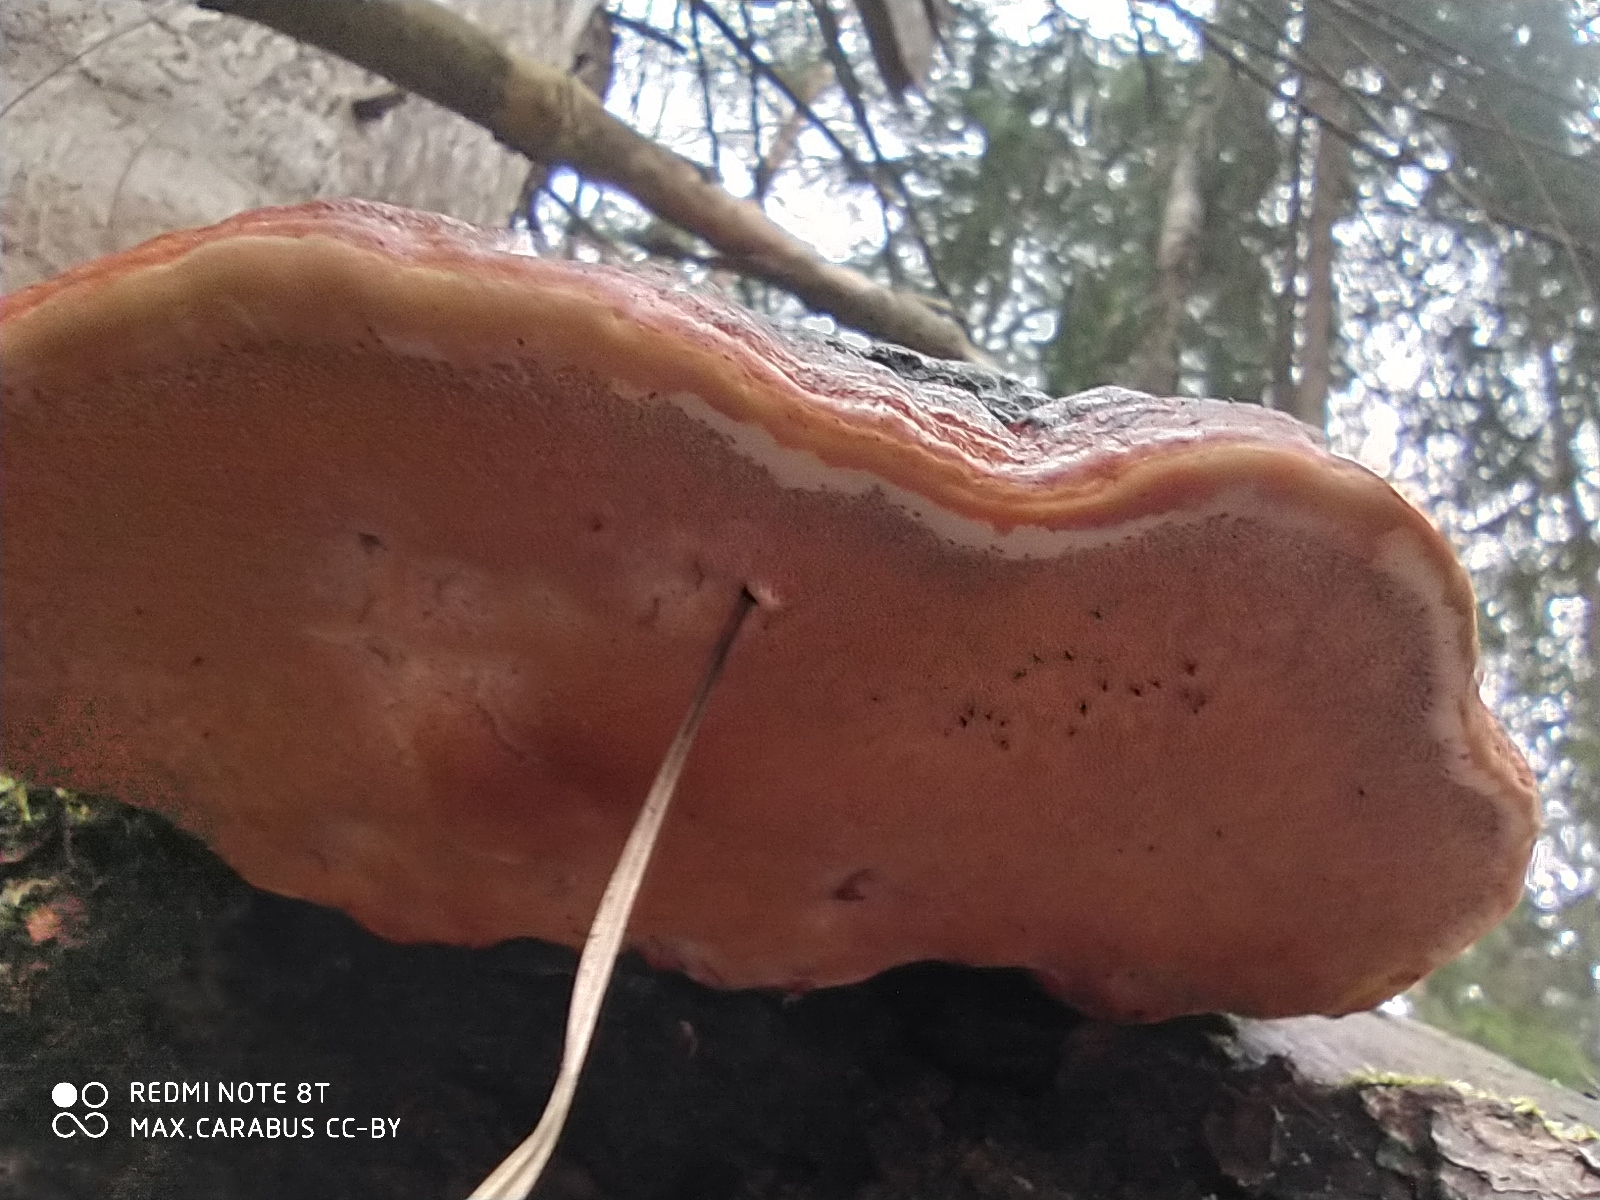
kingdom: Fungi
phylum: Basidiomycota
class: Agaricomycetes
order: Polyporales
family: Fomitopsidaceae
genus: Fomitopsis
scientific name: Fomitopsis pinicola
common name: Red-belted bracket
